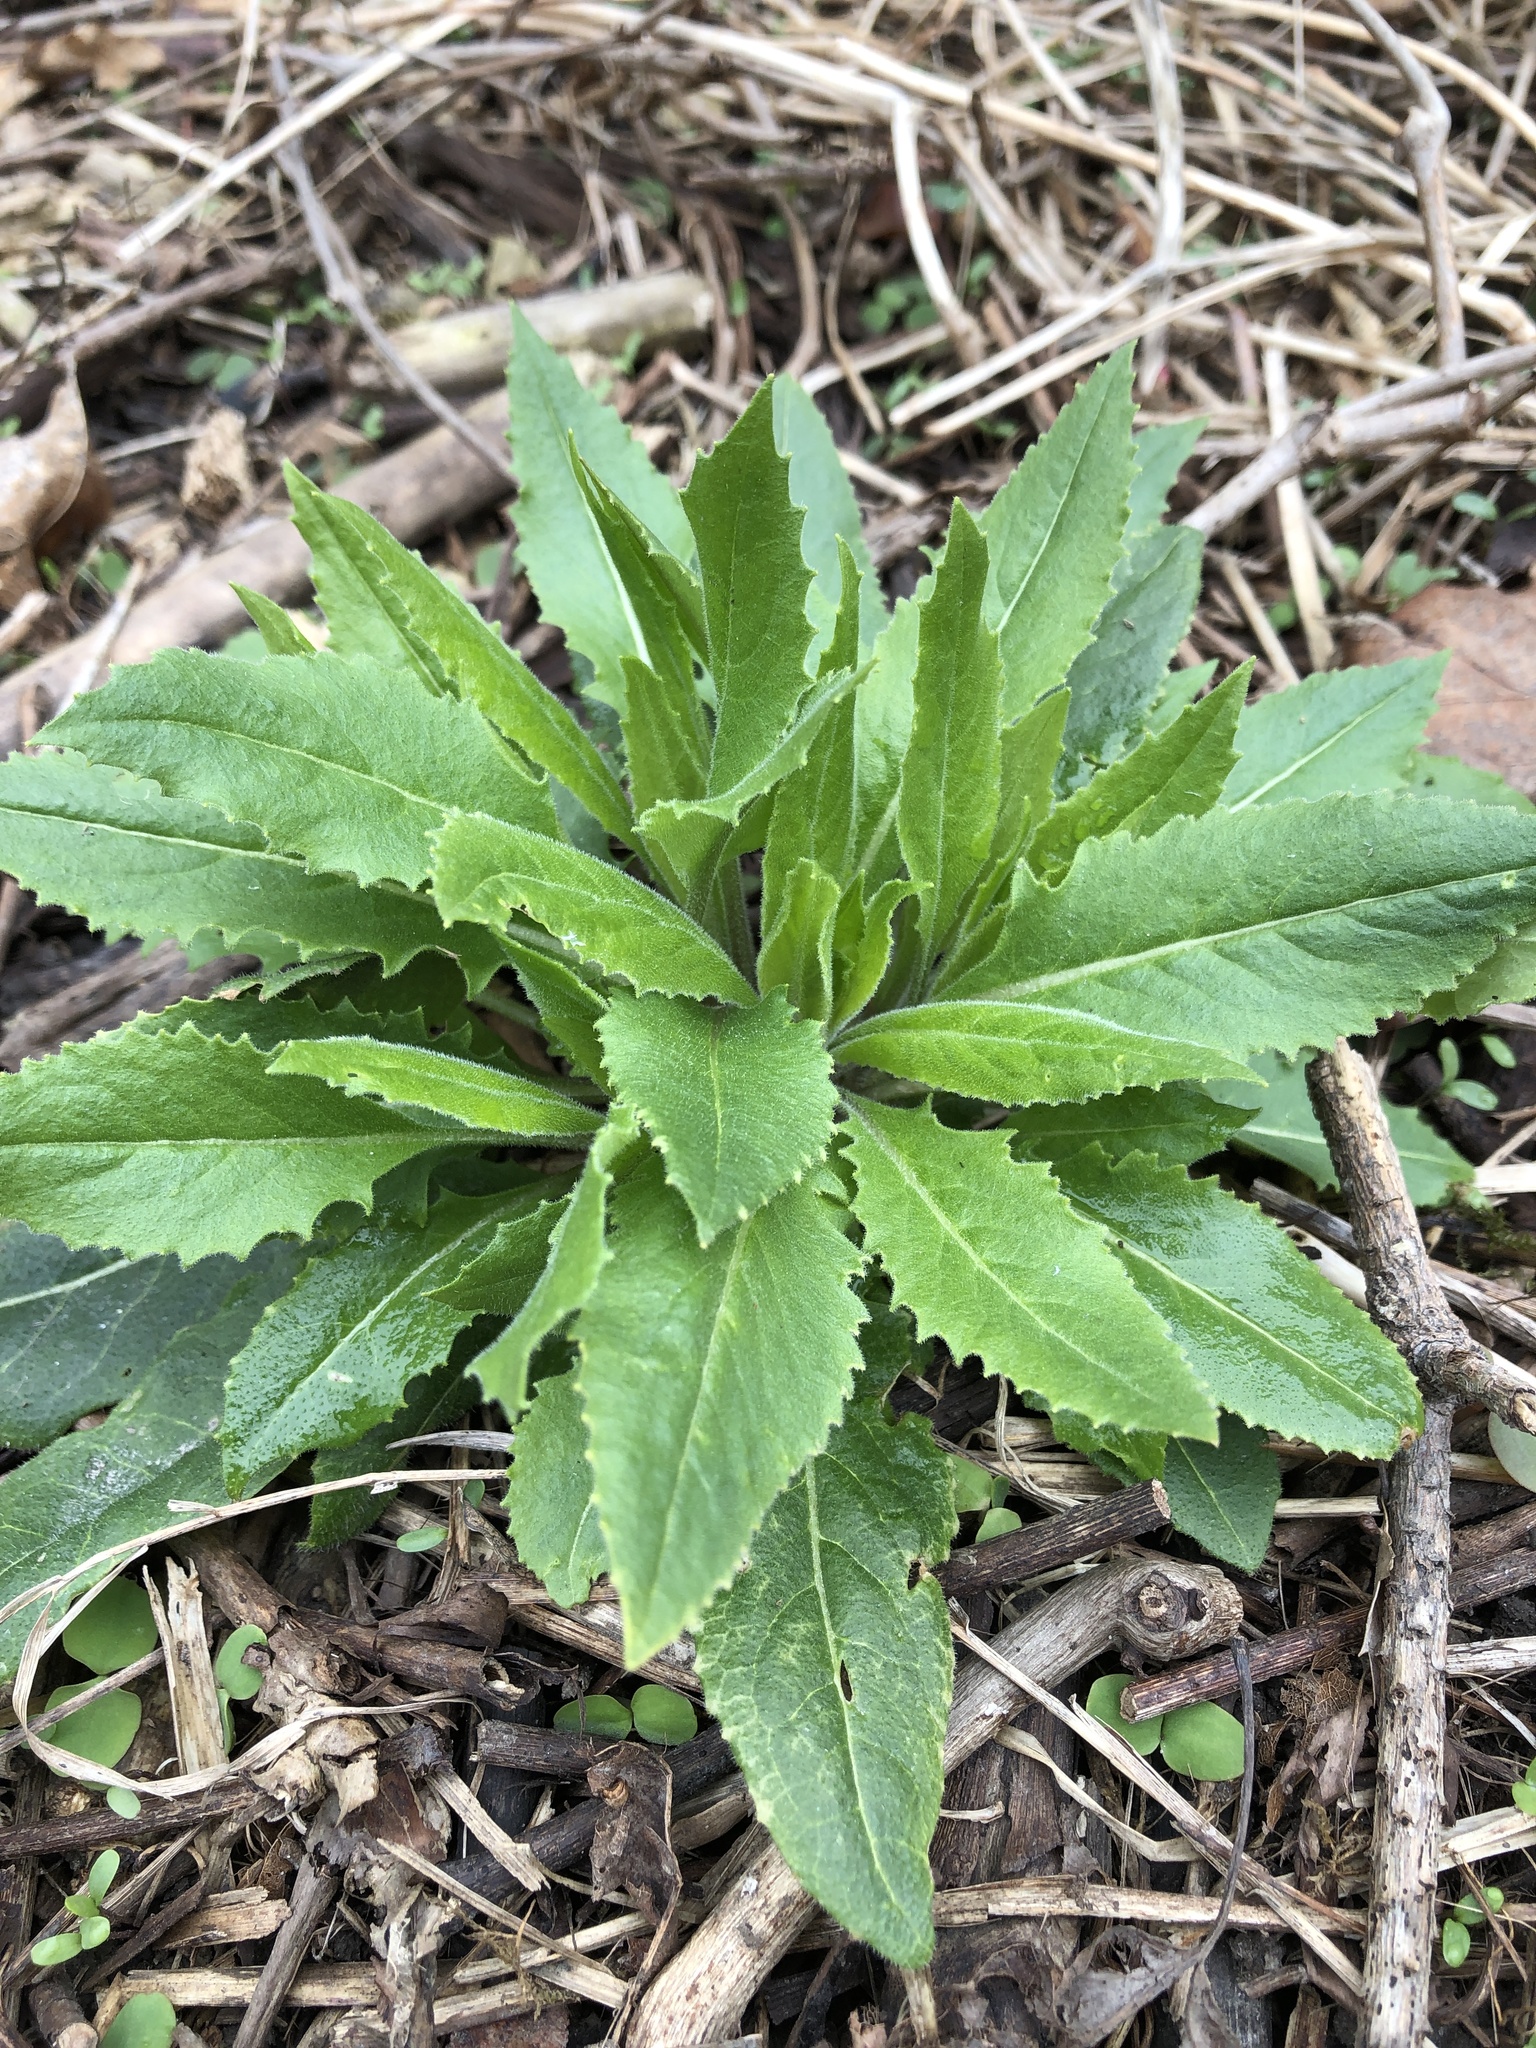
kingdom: Plantae
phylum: Tracheophyta
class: Magnoliopsida
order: Brassicales
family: Brassicaceae
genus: Hesperis
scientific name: Hesperis matronalis
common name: Dame's-violet
